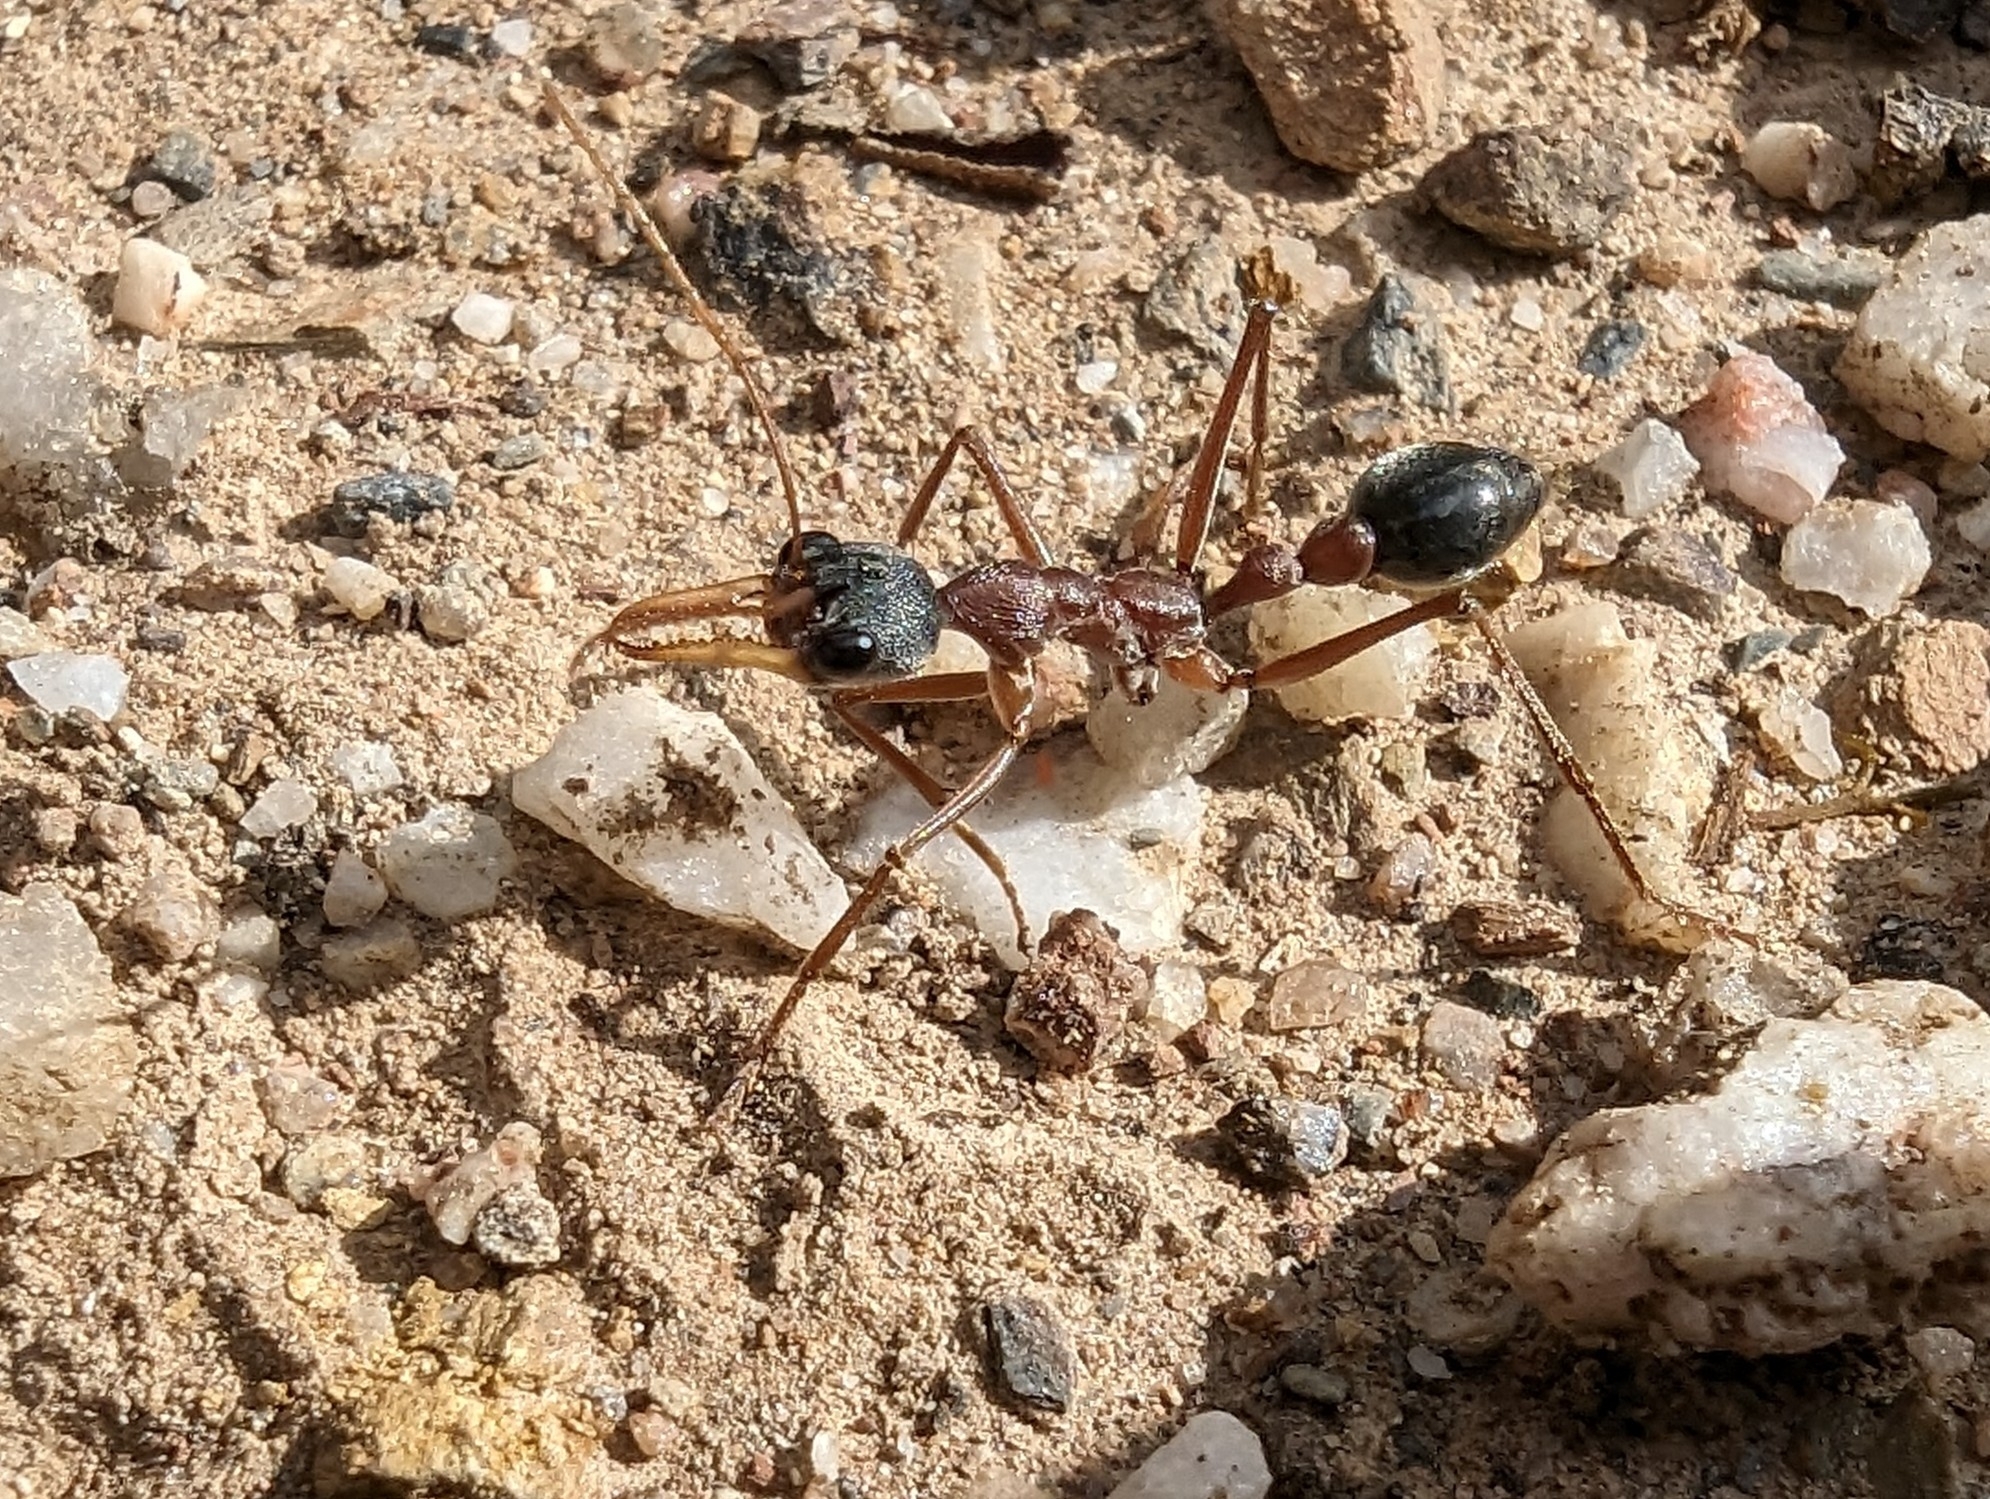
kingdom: Animalia
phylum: Arthropoda
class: Insecta
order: Hymenoptera
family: Formicidae
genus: Myrmecia
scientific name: Myrmecia nigriceps
